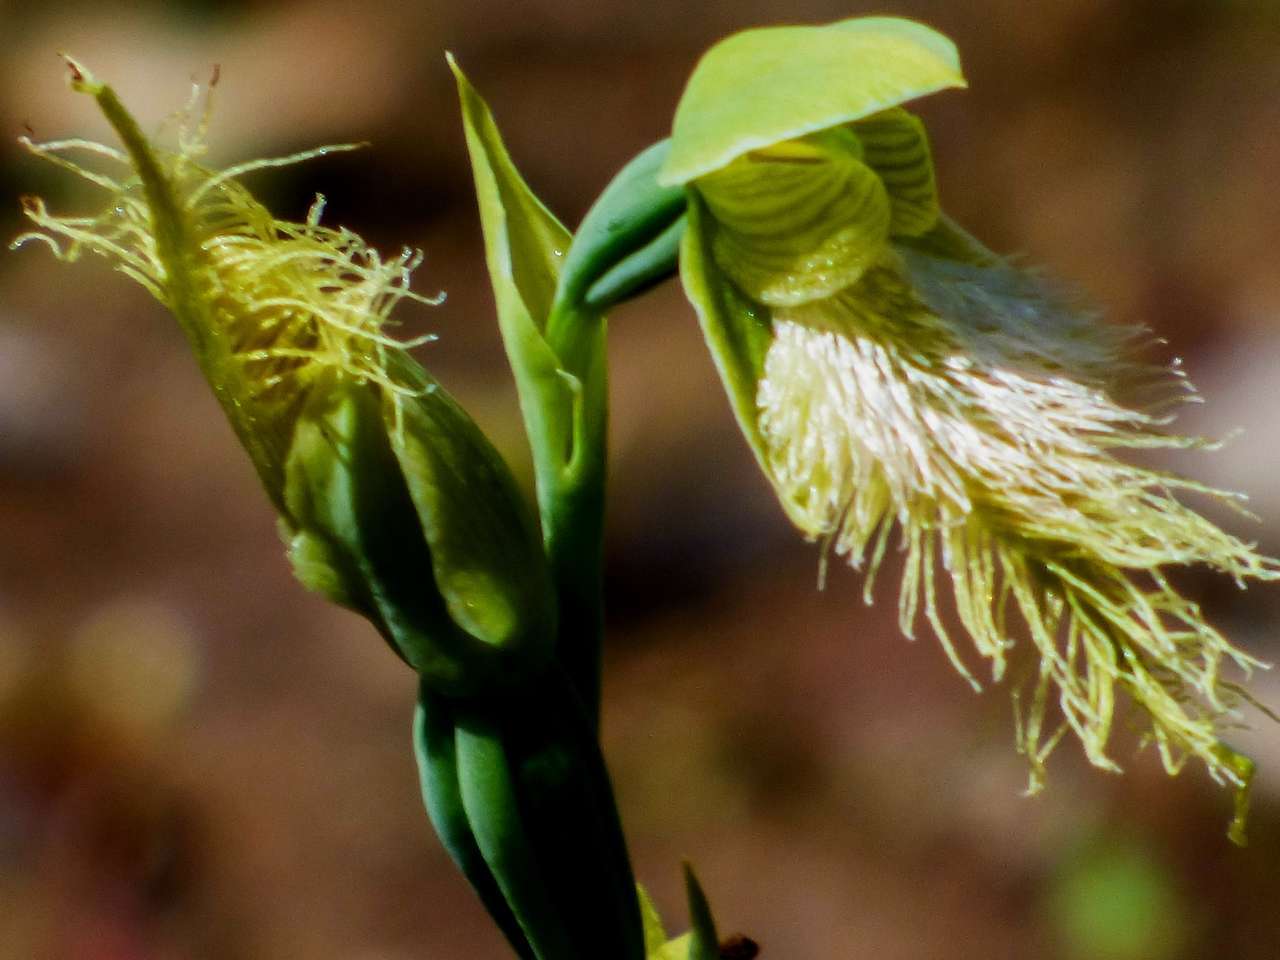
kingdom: Plantae
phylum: Tracheophyta
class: Liliopsida
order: Asparagales
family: Orchidaceae
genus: Calochilus
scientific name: Calochilus robertsonii
